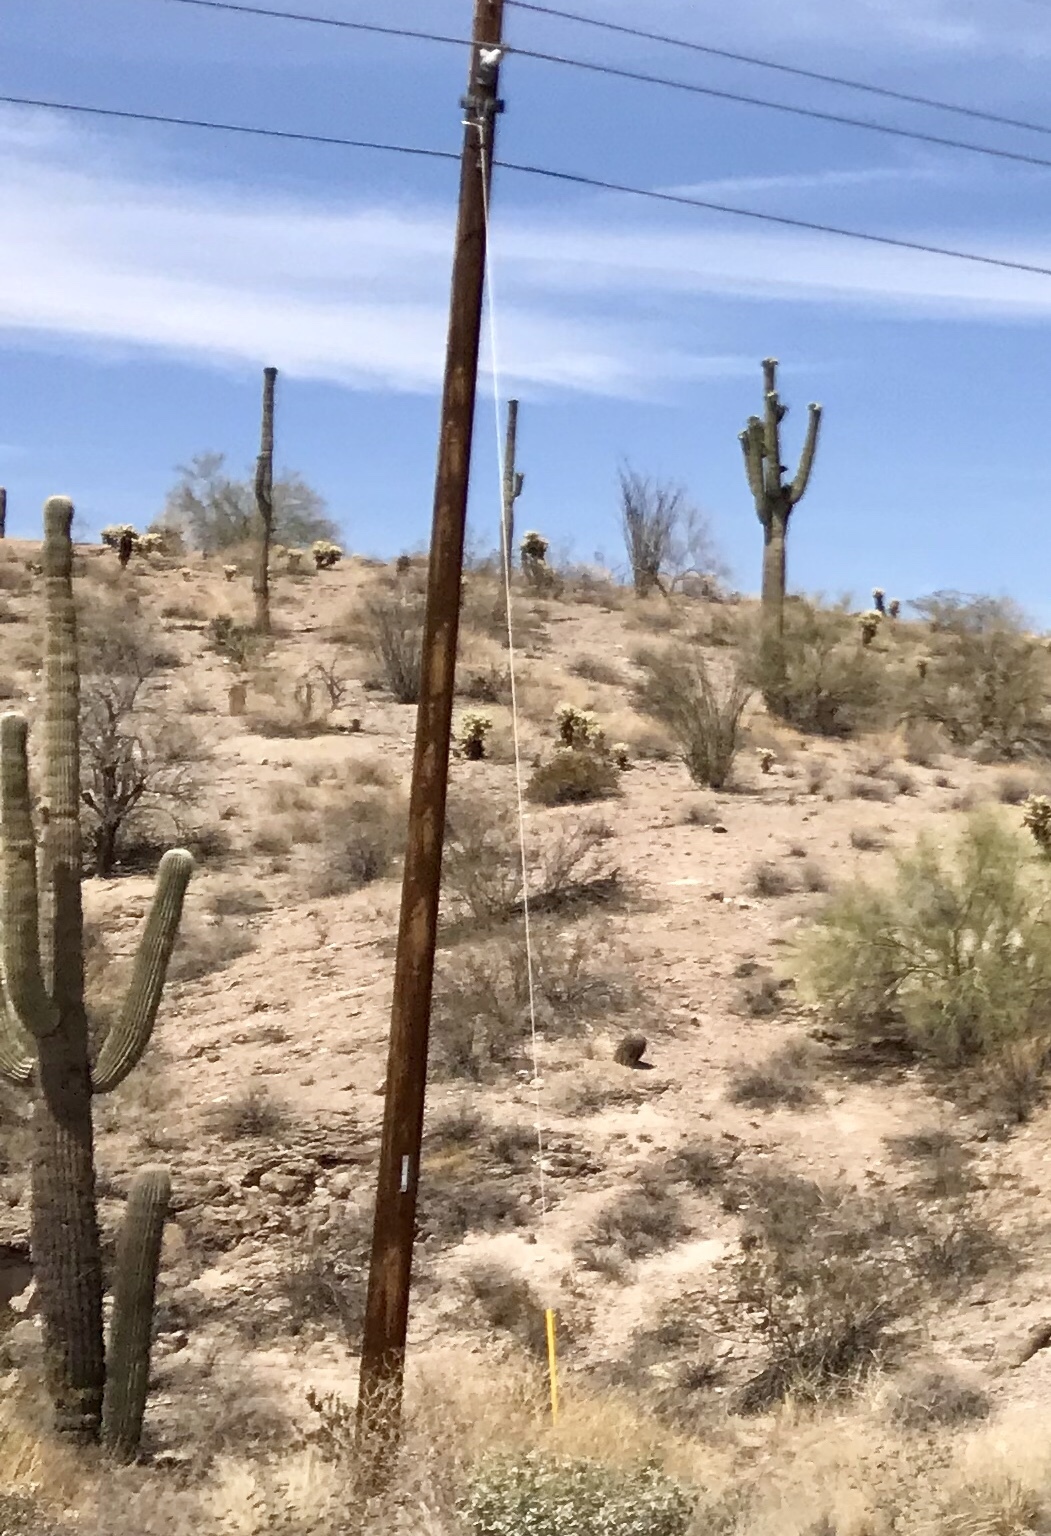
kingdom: Plantae
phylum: Tracheophyta
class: Magnoliopsida
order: Caryophyllales
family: Cactaceae
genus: Carnegiea
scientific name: Carnegiea gigantea
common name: Saguaro
